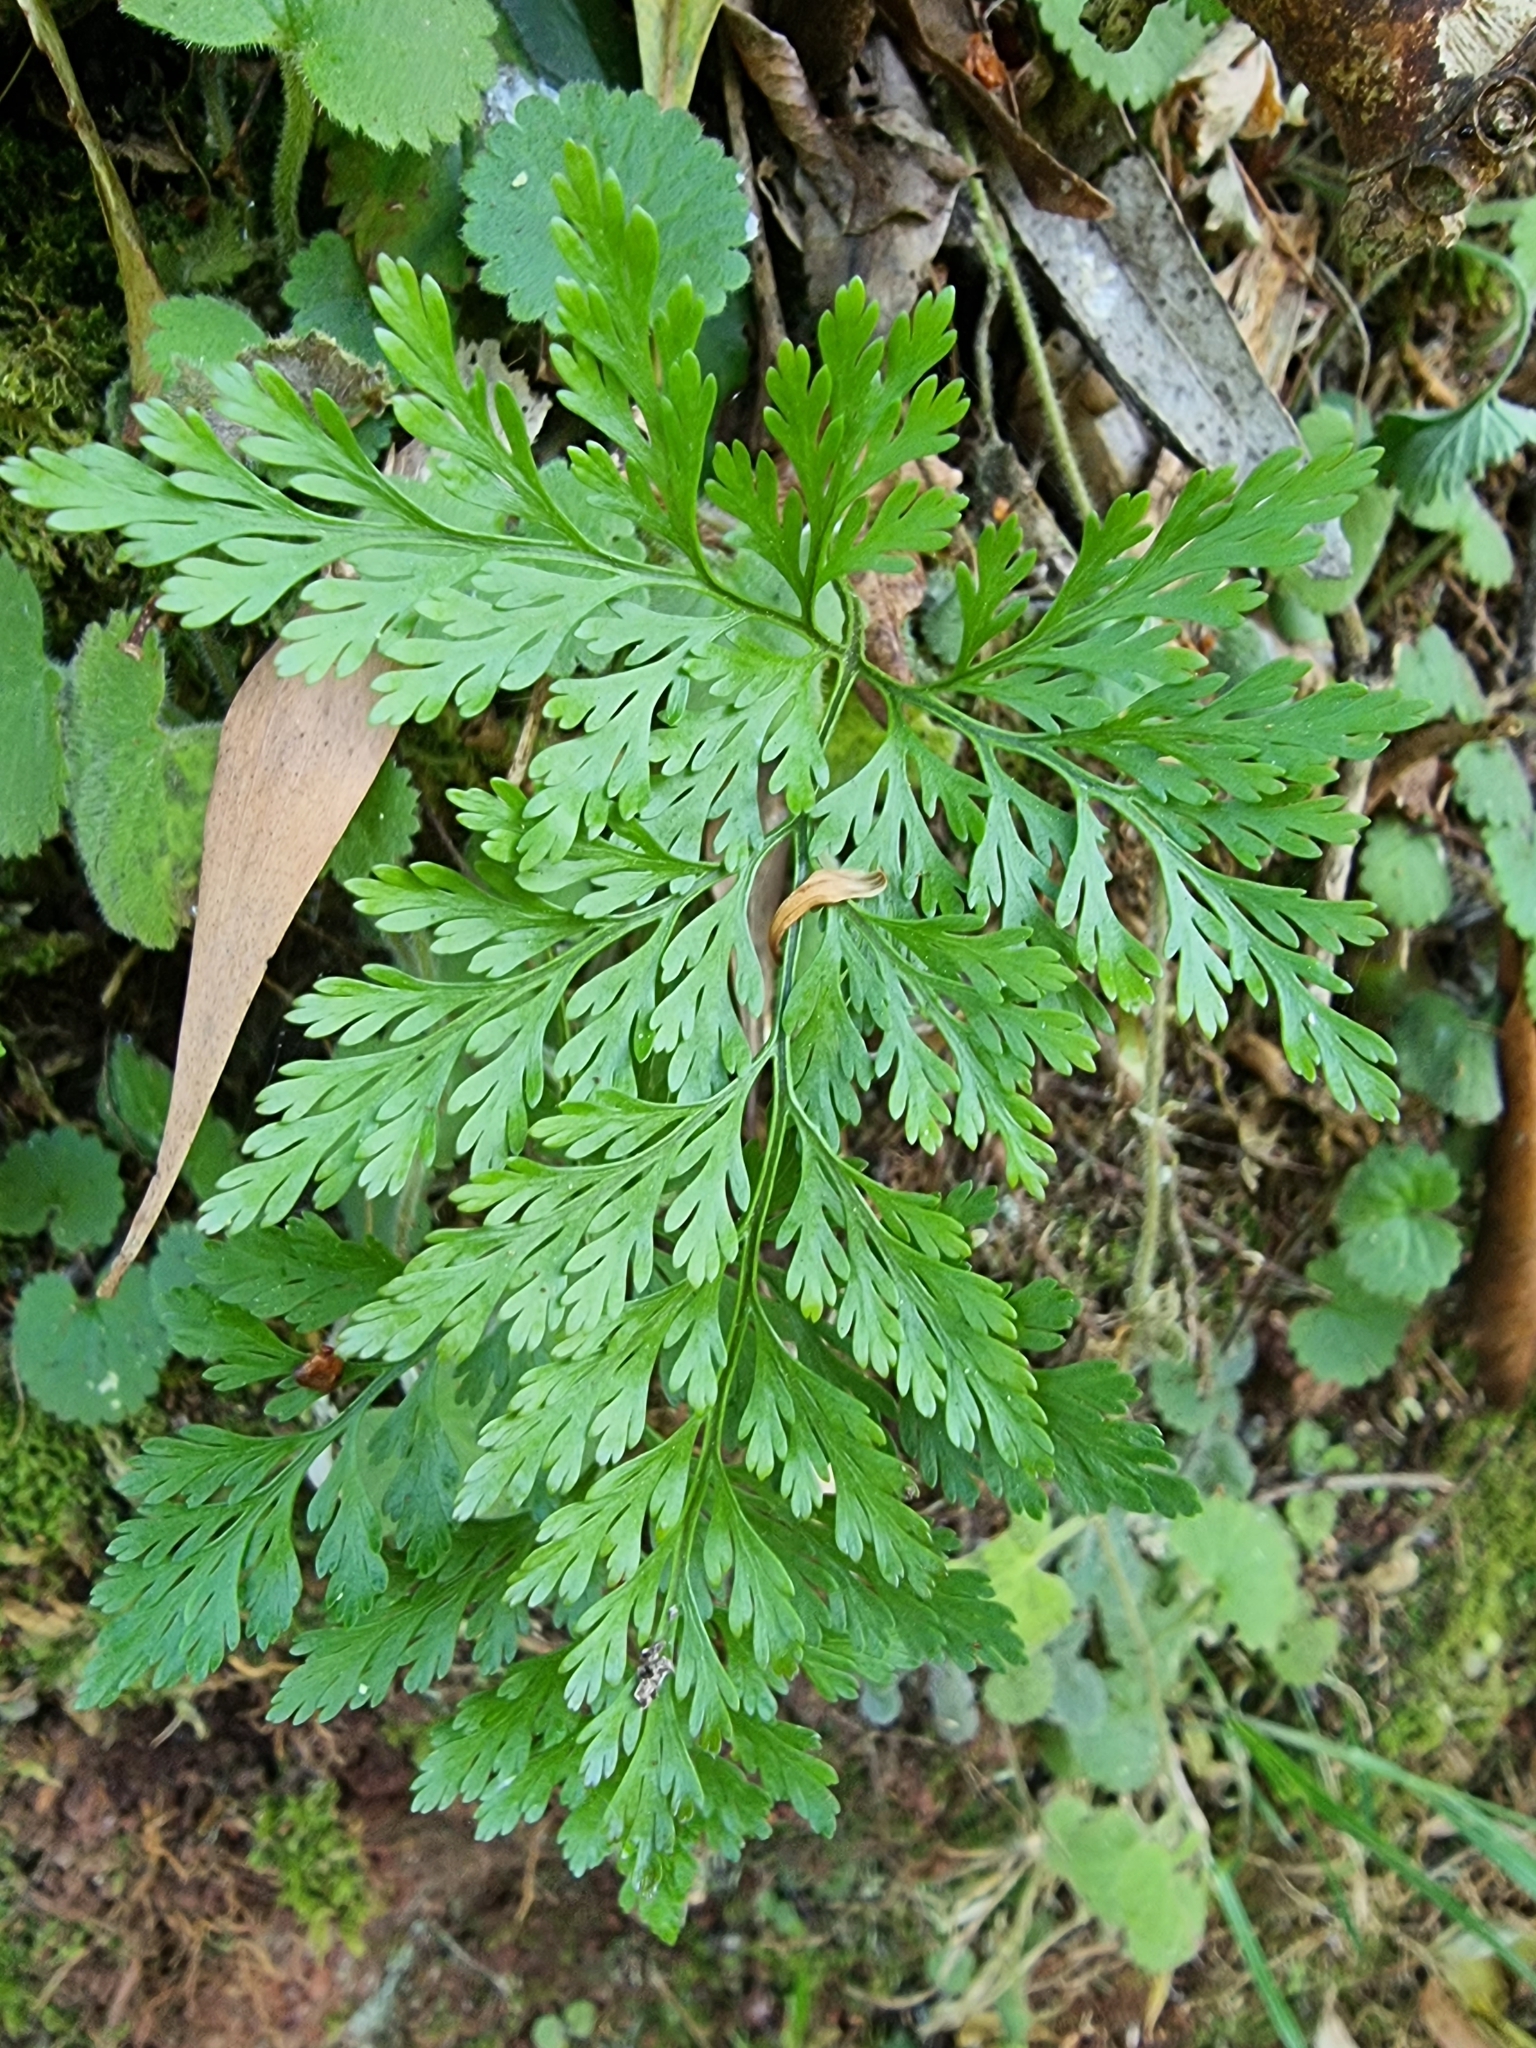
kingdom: Plantae
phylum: Tracheophyta
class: Polypodiopsida
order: Polypodiales
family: Davalliaceae
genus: Davallia
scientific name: Davallia canariensis
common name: Hare's-foot fern
